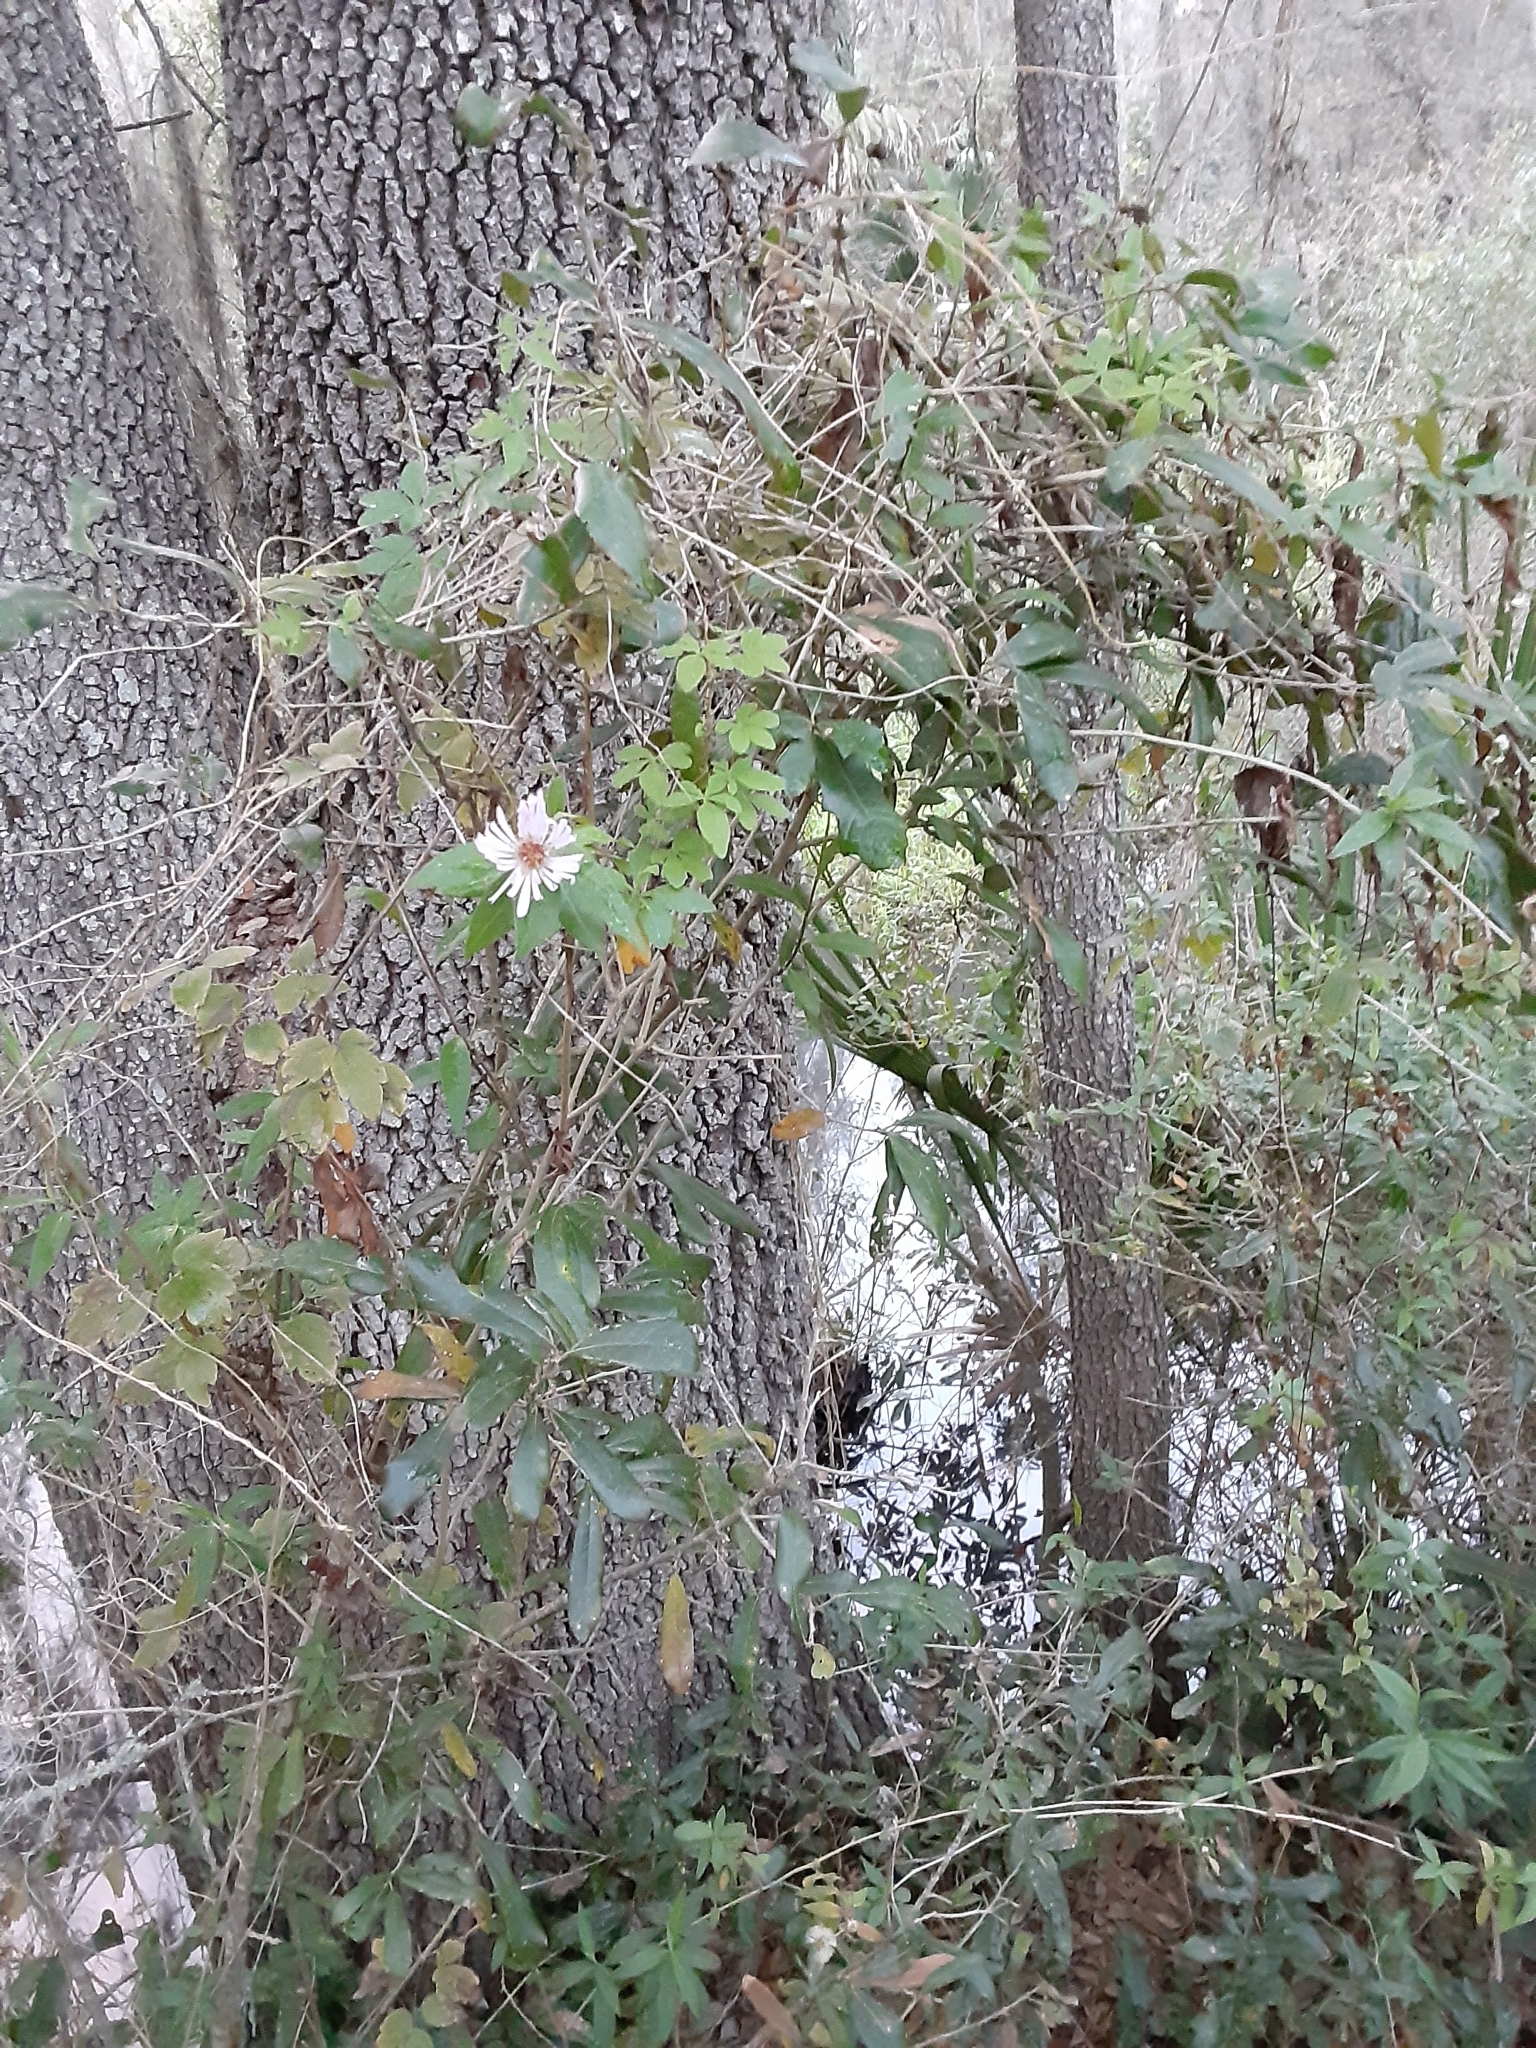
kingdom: Plantae
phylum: Tracheophyta
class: Magnoliopsida
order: Asterales
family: Asteraceae
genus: Ampelaster
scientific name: Ampelaster carolinianus
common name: Climbing aster
